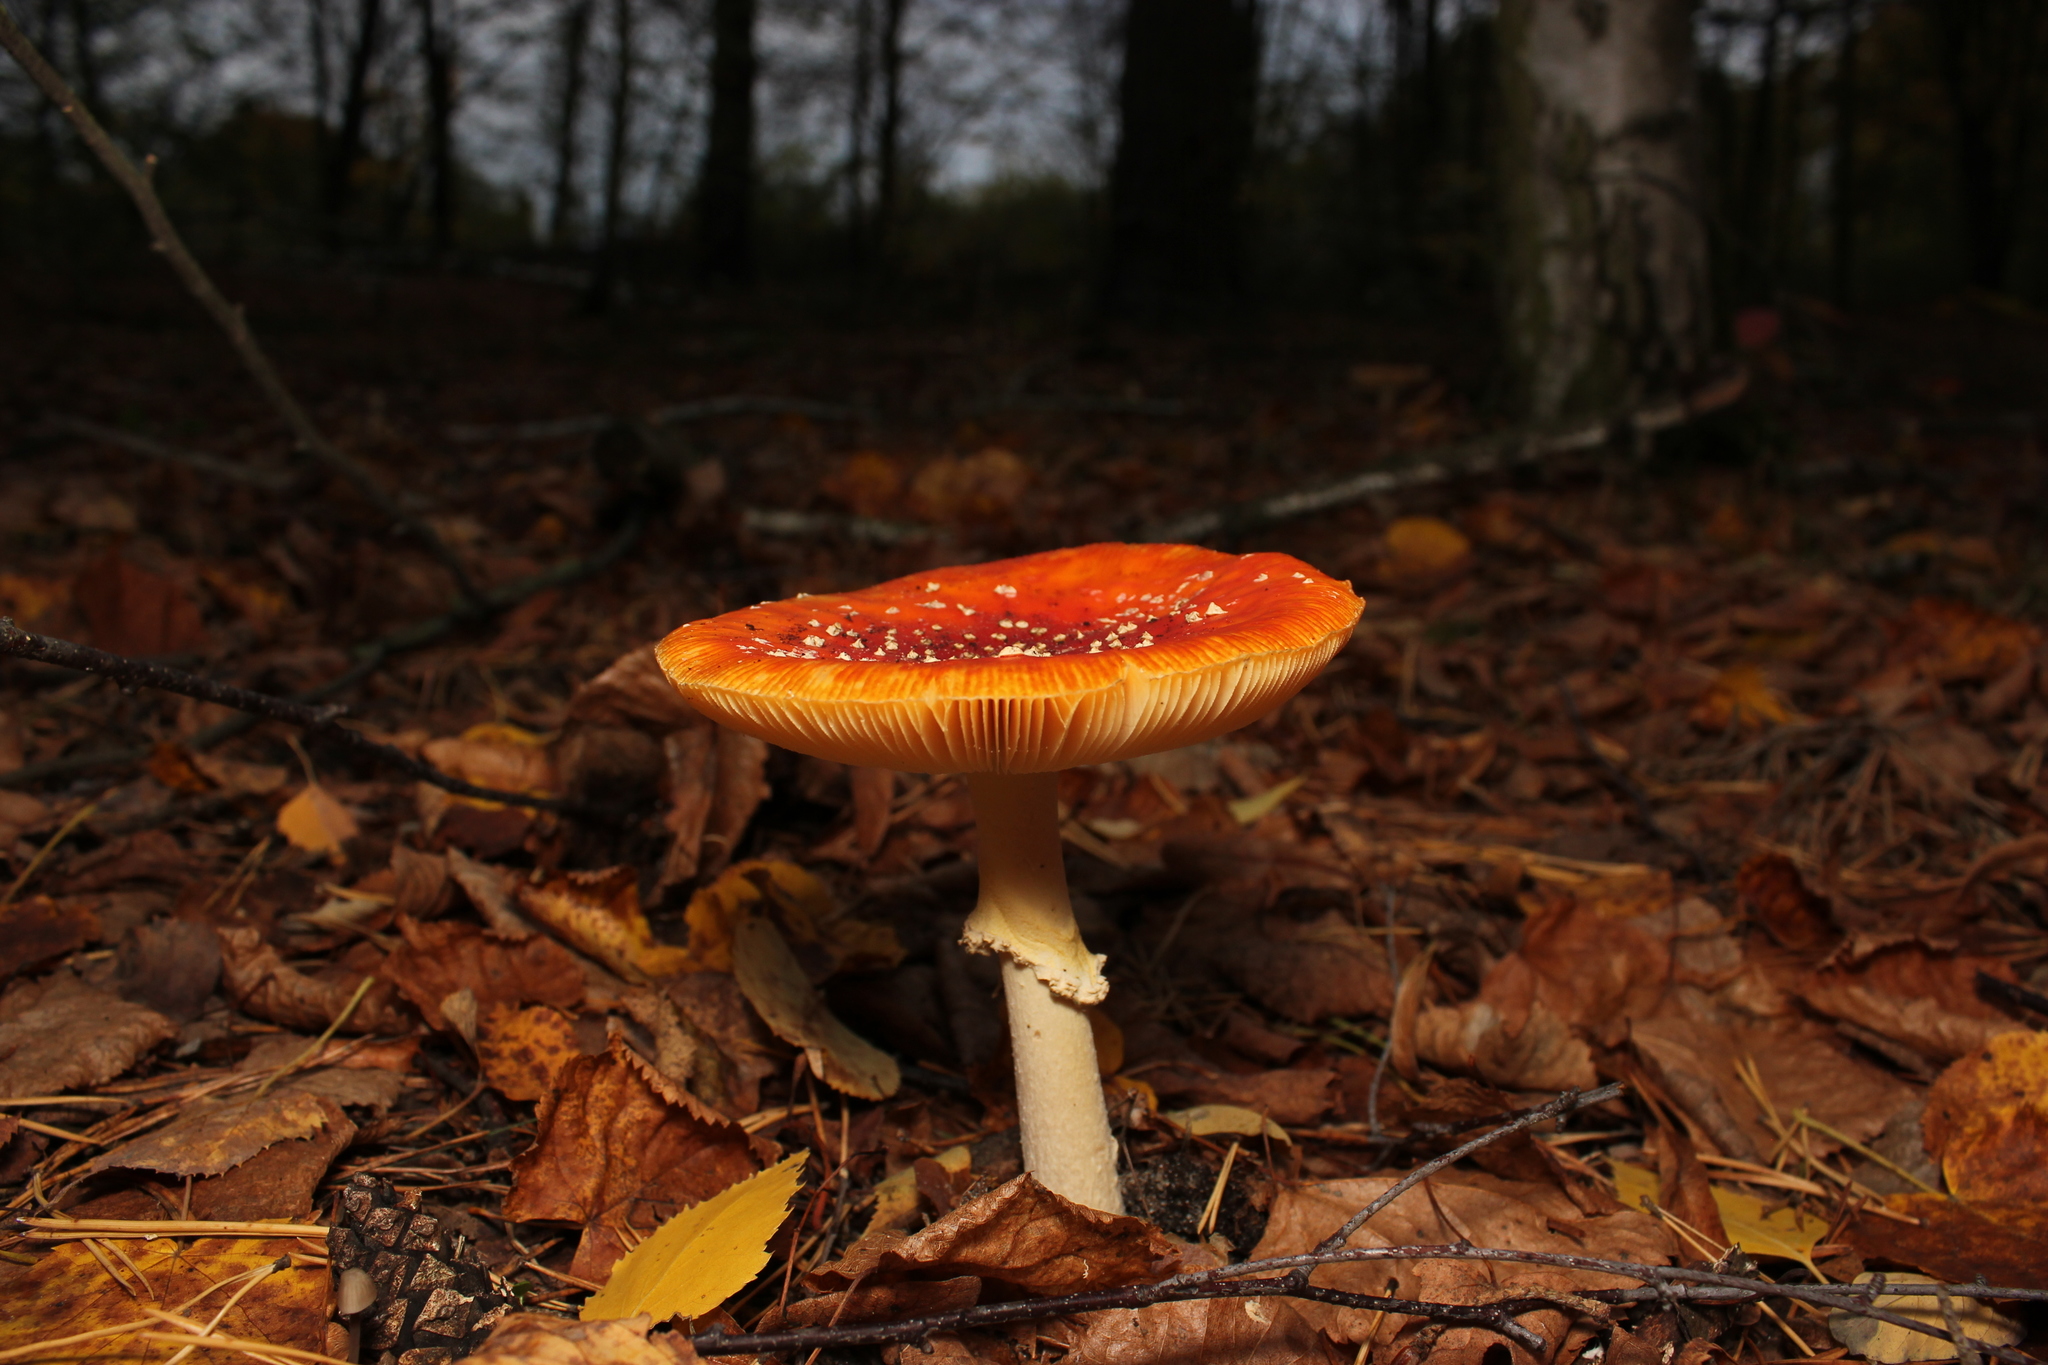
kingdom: Fungi
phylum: Basidiomycota
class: Agaricomycetes
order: Agaricales
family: Amanitaceae
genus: Amanita
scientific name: Amanita muscaria
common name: Fly agaric
